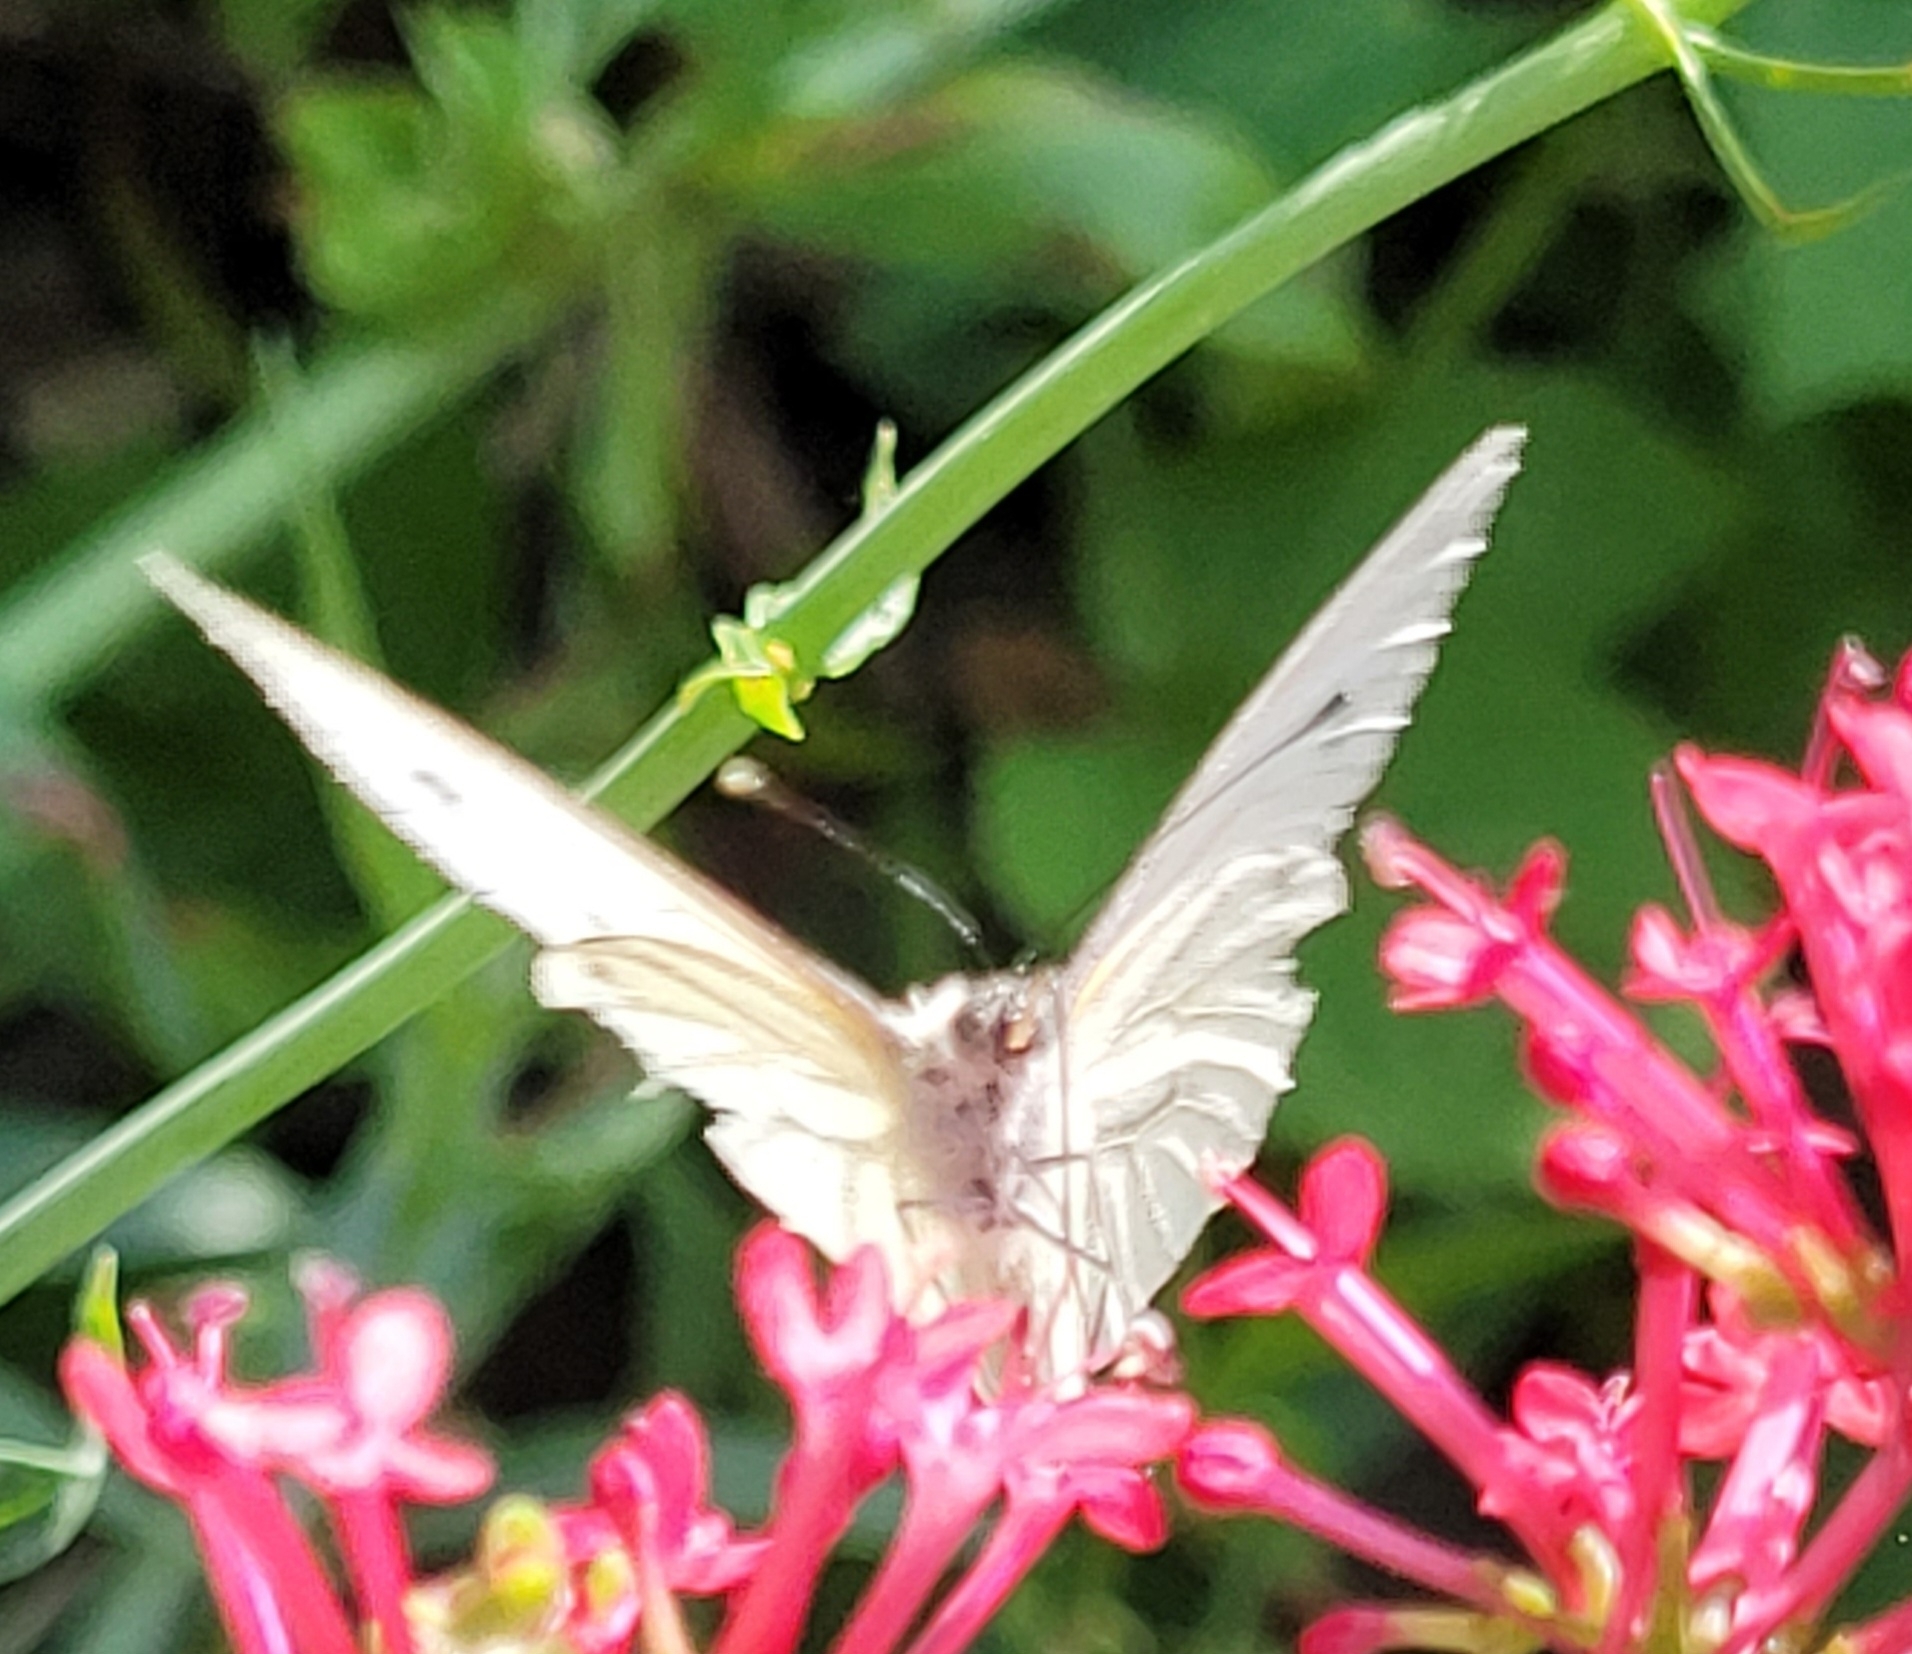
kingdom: Animalia
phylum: Arthropoda
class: Insecta
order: Lepidoptera
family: Pieridae
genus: Pieris
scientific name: Pieris napi
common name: Green-veined white
